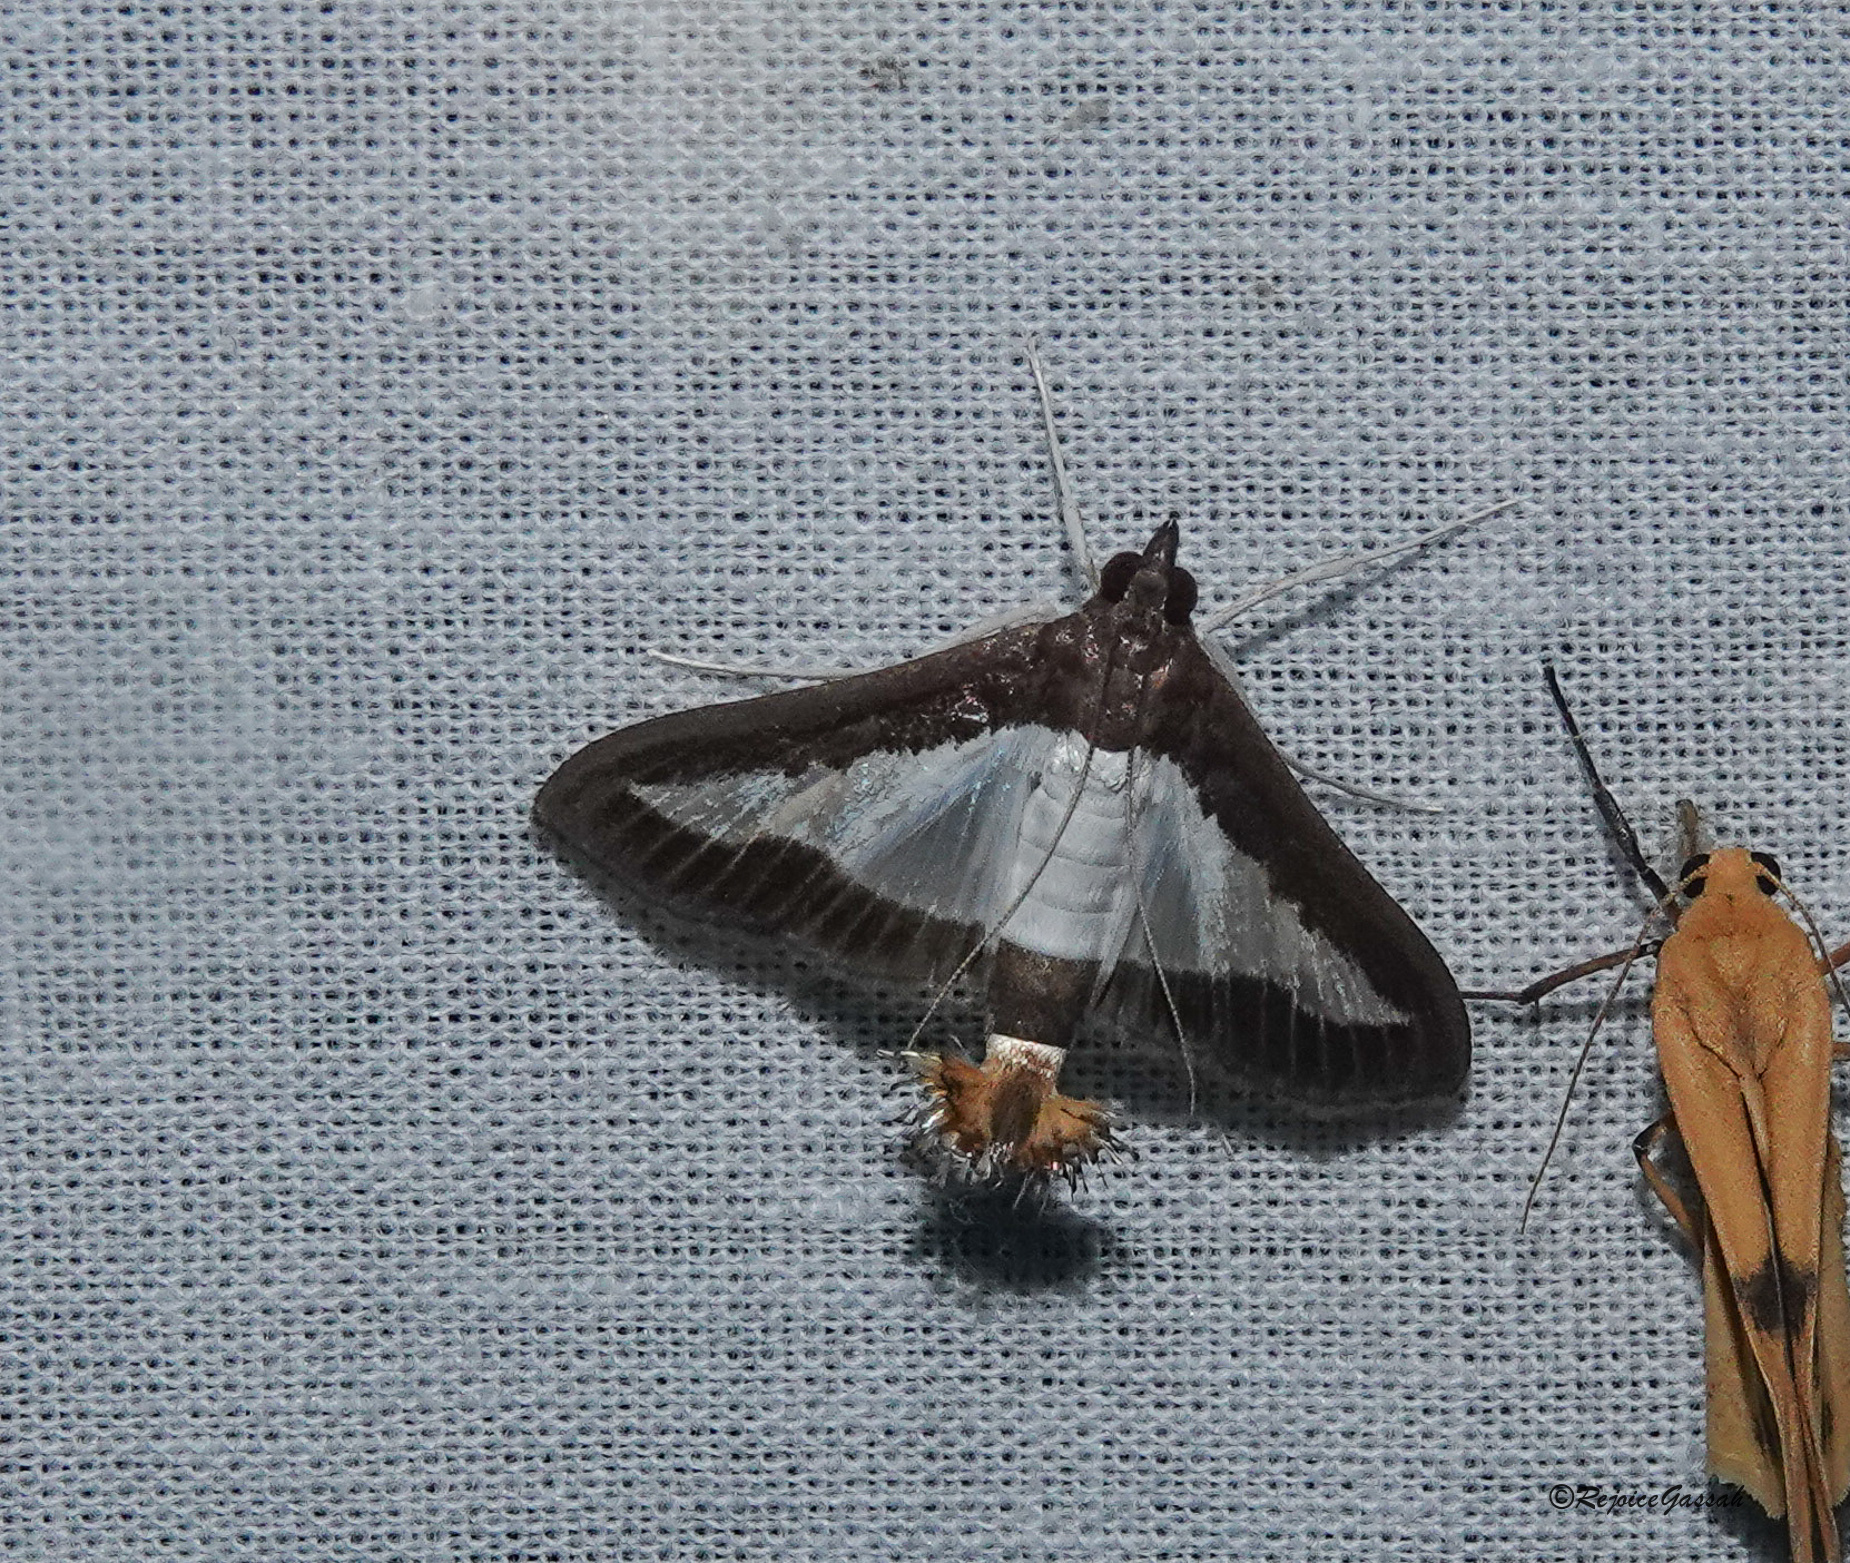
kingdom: Animalia
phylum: Arthropoda
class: Insecta
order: Lepidoptera
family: Crambidae
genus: Diaphania
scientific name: Diaphania indica
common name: Cucumber moth
